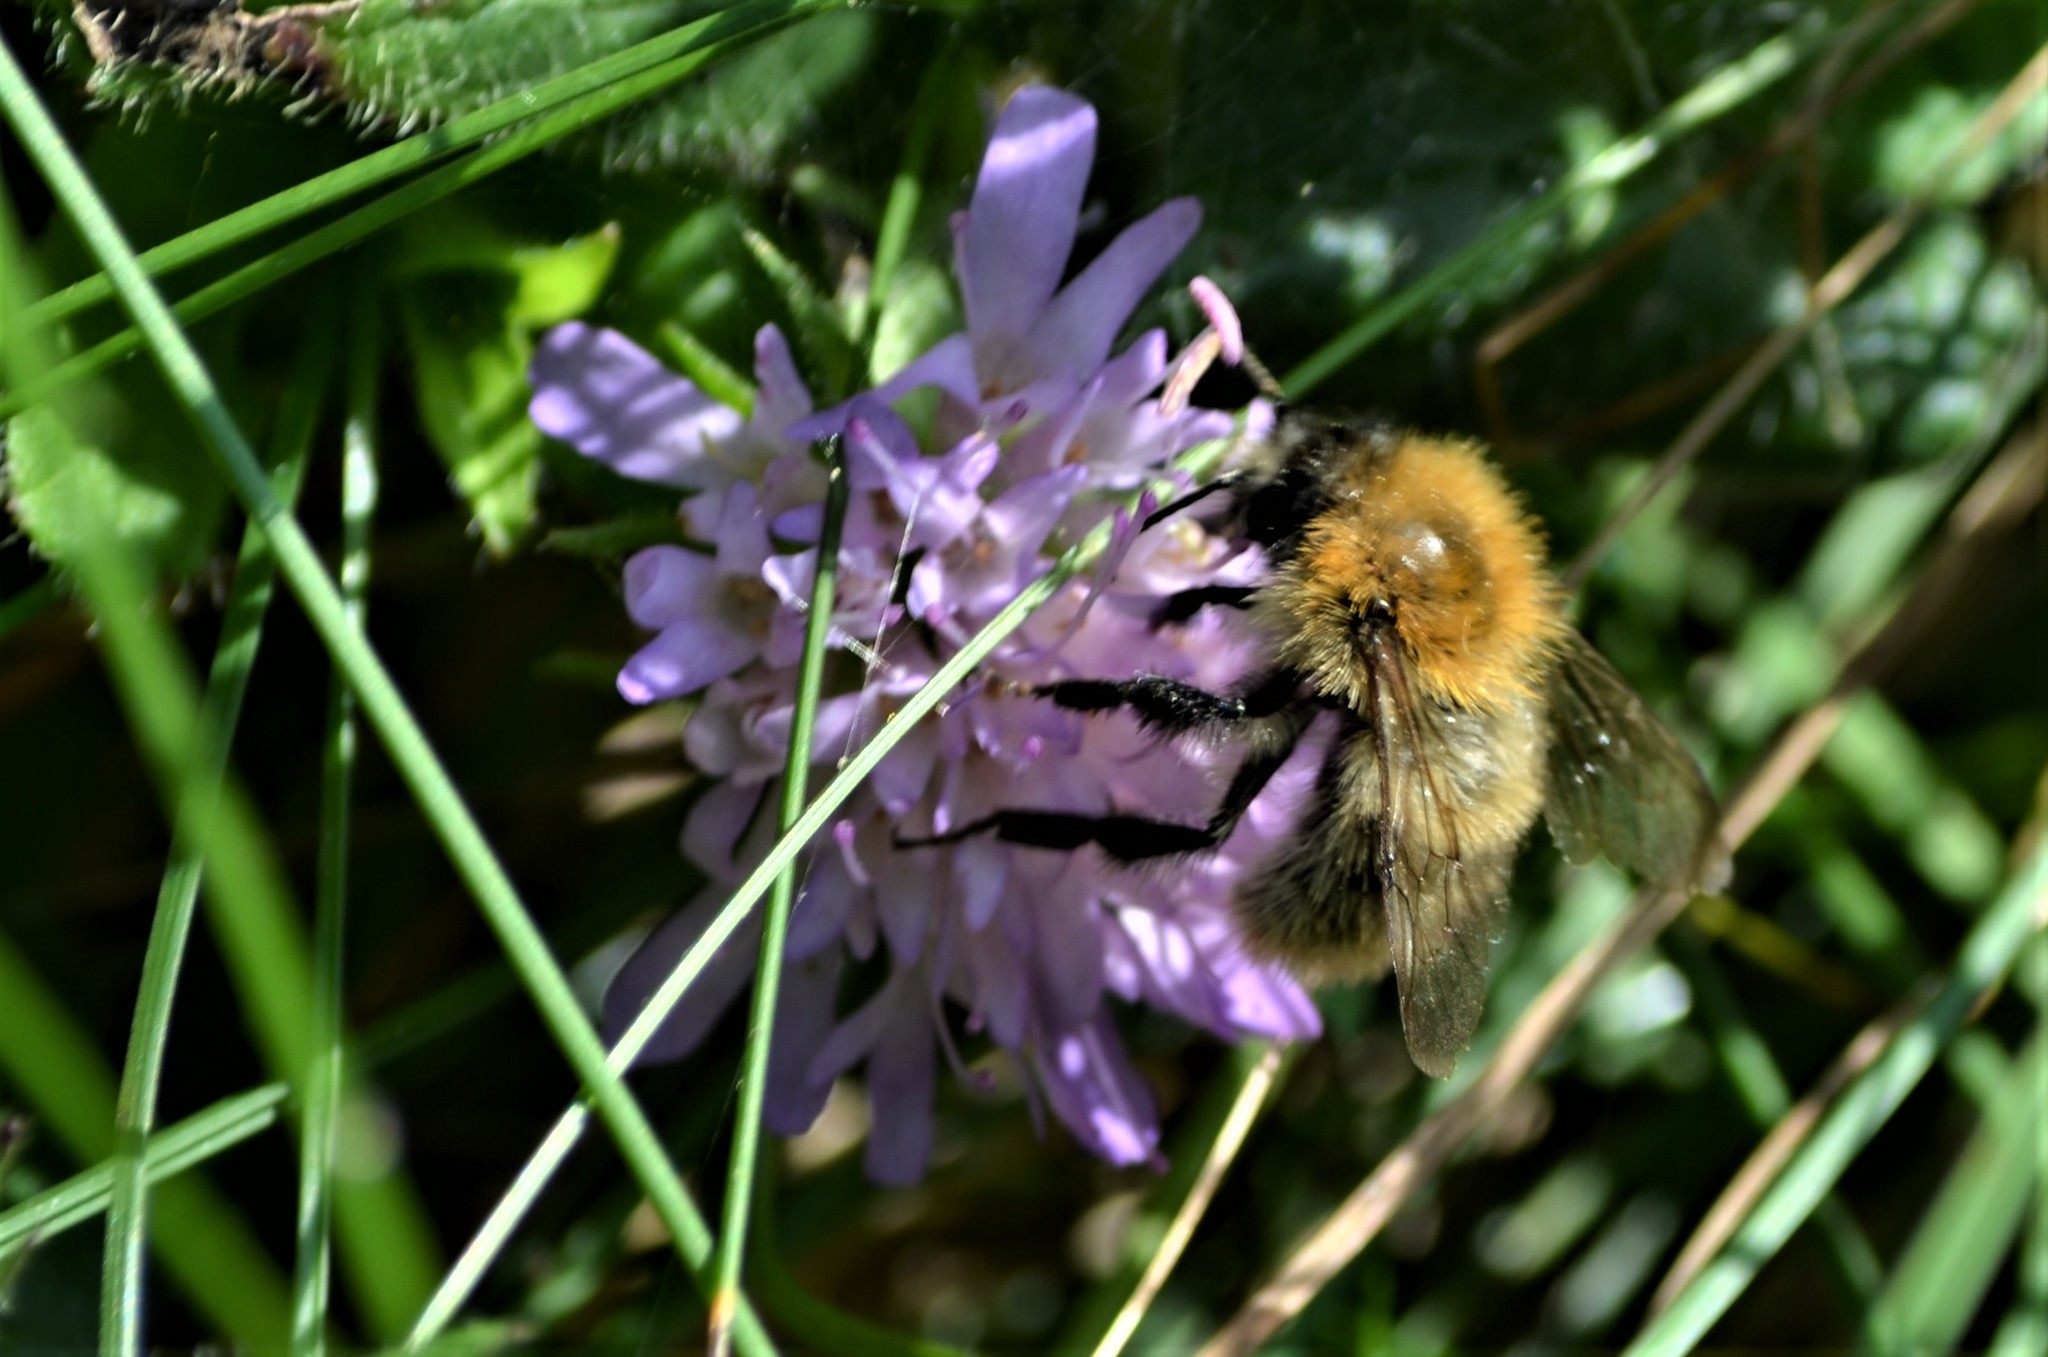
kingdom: Animalia
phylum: Arthropoda
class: Insecta
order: Hymenoptera
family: Apidae
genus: Bombus
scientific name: Bombus pascuorum
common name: Common carder bee
